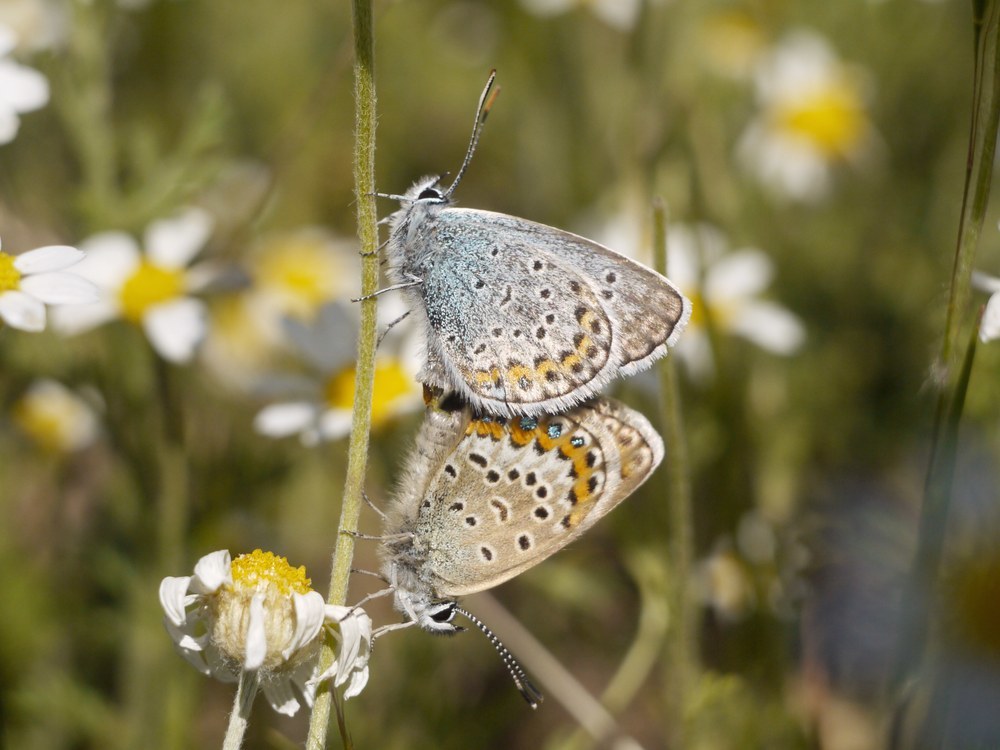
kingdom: Animalia
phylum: Arthropoda
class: Insecta
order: Lepidoptera
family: Lycaenidae
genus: Plebejus
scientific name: Plebejus argus
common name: Silver-studded blue
